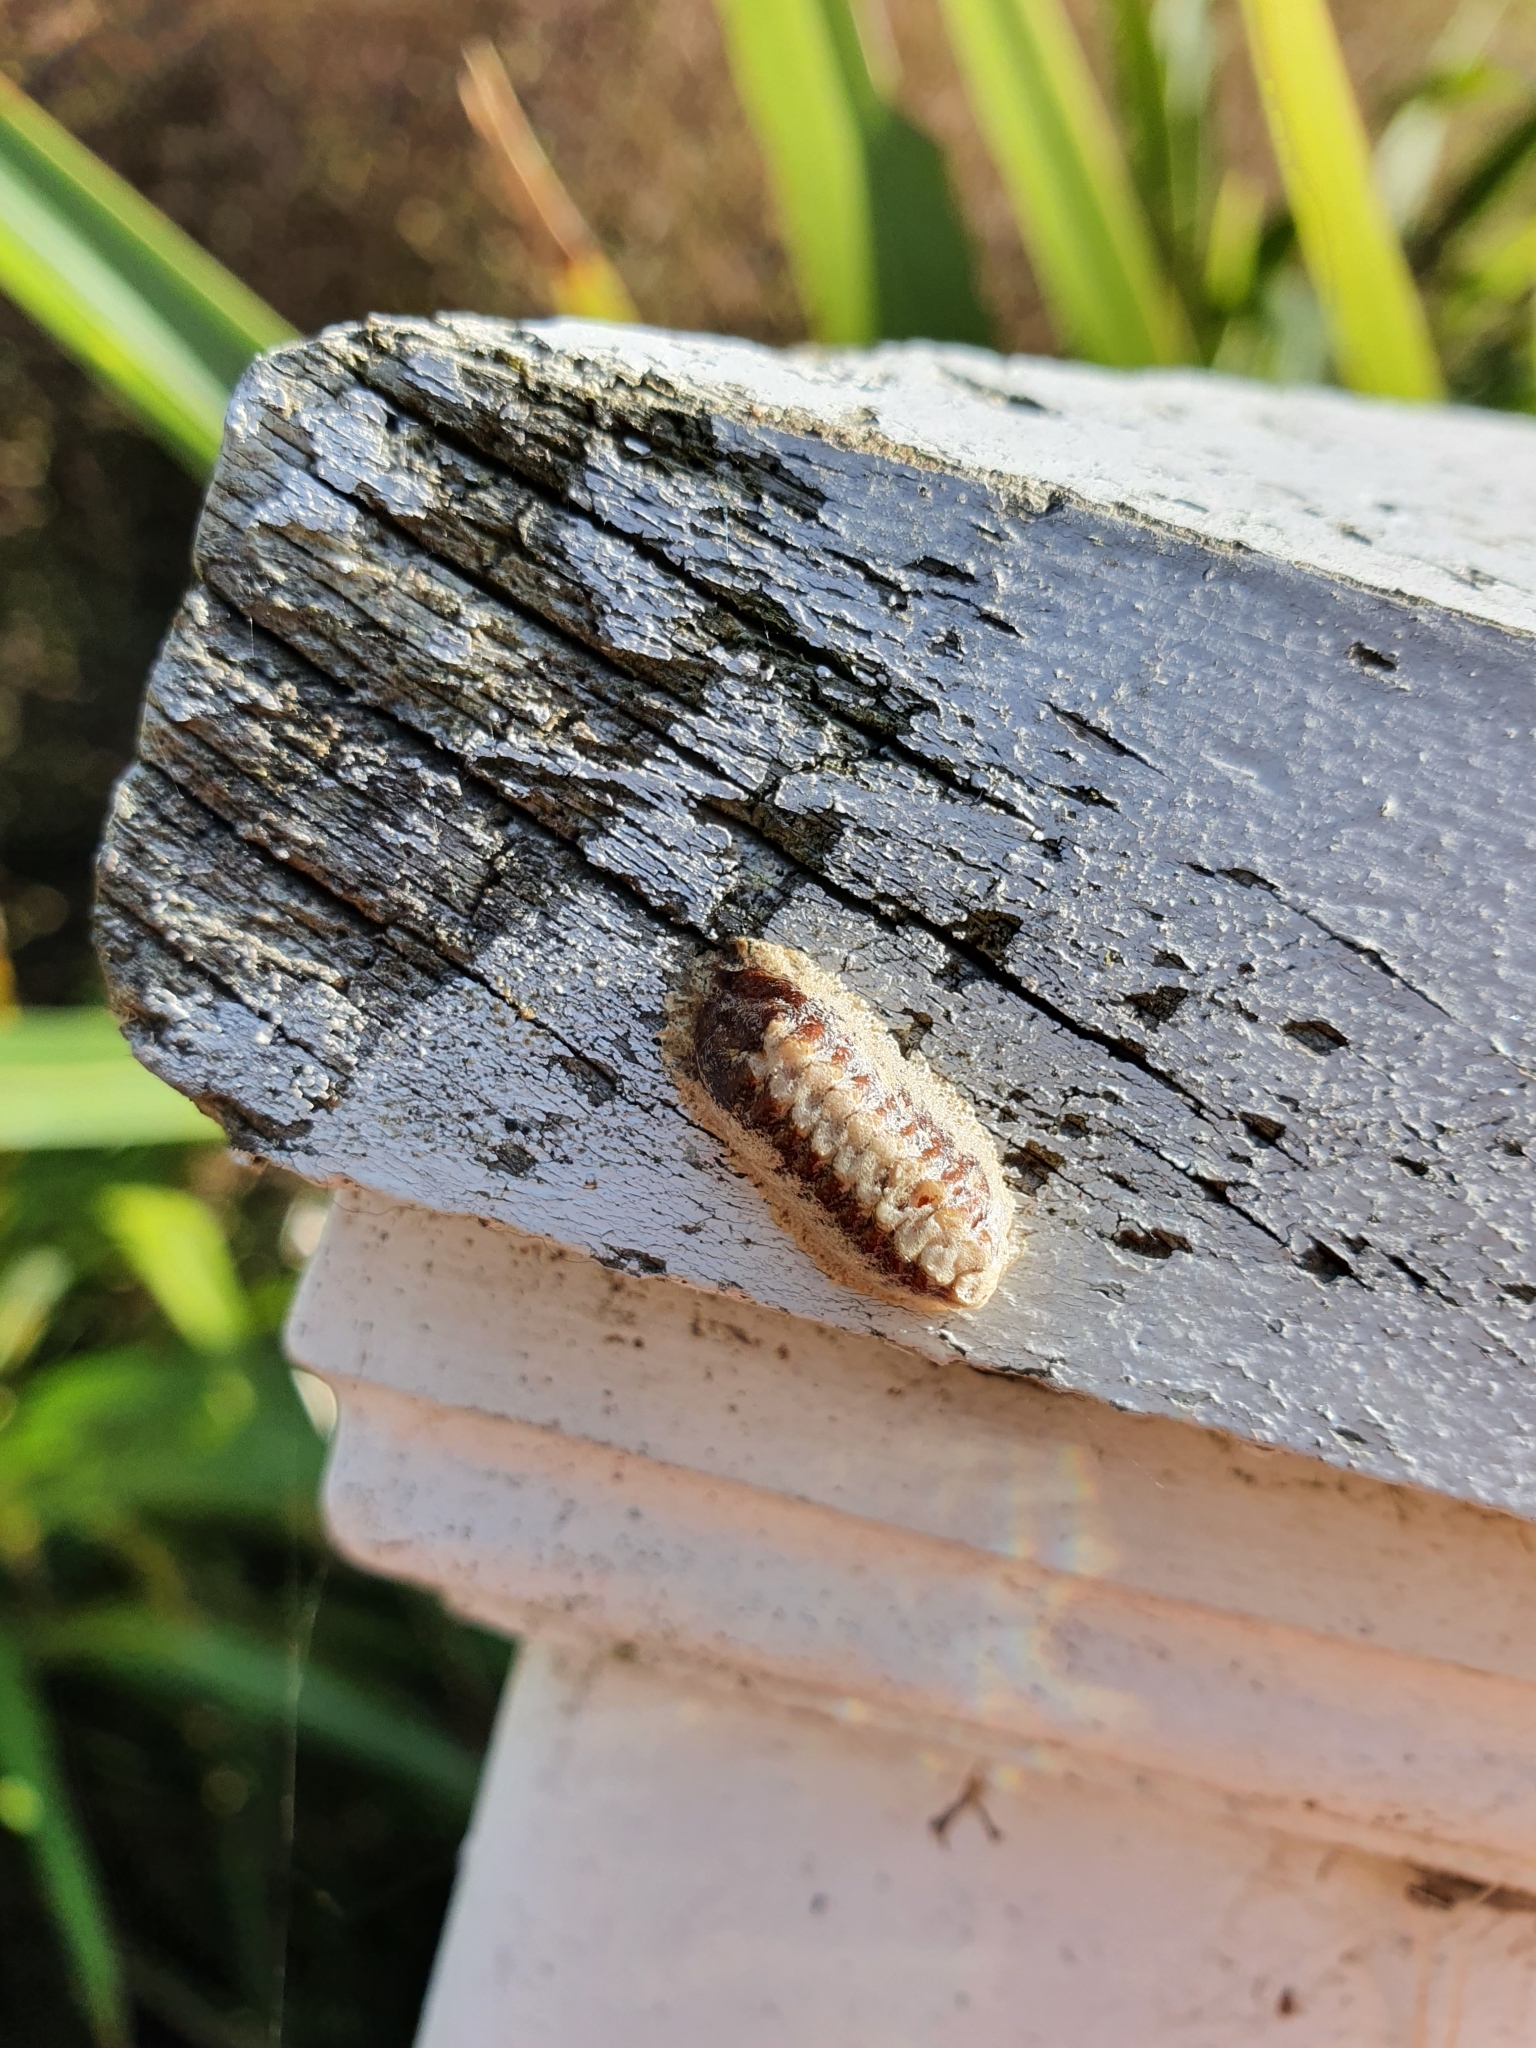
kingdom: Animalia
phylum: Arthropoda
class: Insecta
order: Mantodea
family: Mantidae
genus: Orthodera
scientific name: Orthodera novaezealandiae
